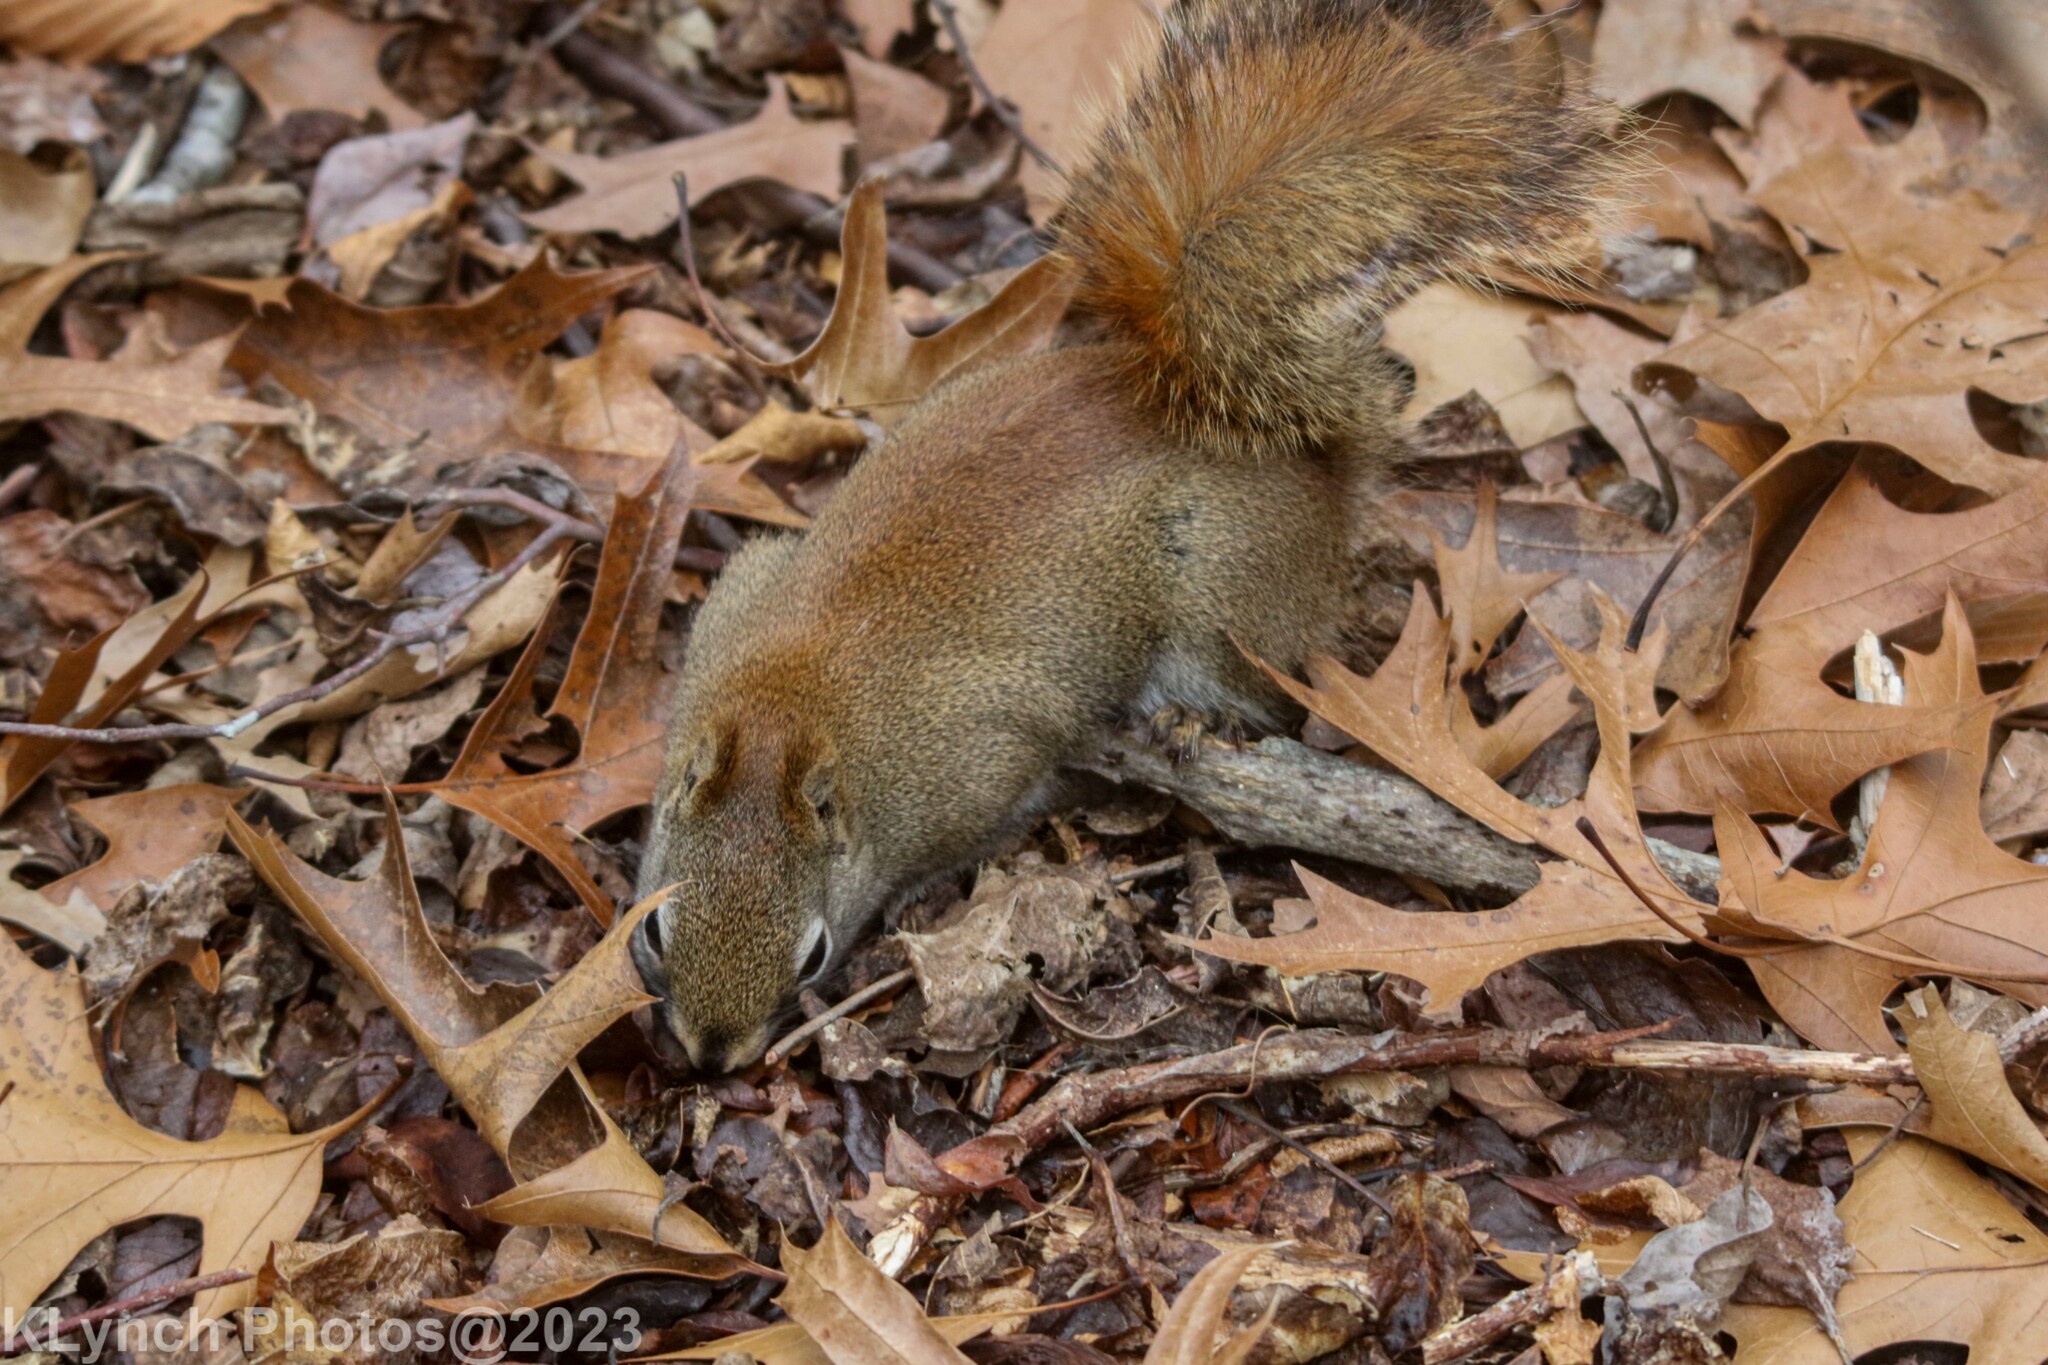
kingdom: Animalia
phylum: Chordata
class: Mammalia
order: Rodentia
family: Sciuridae
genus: Tamiasciurus
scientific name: Tamiasciurus hudsonicus
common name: Red squirrel
